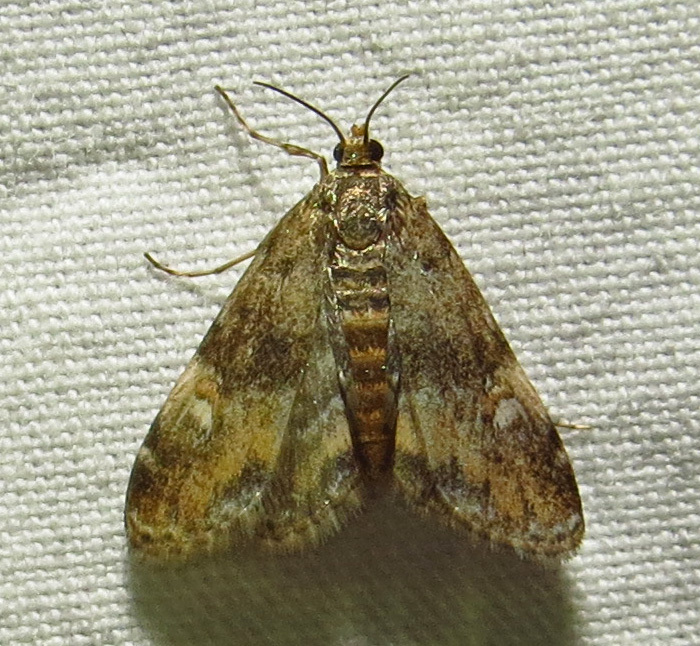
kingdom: Animalia
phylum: Arthropoda
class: Insecta
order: Lepidoptera
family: Crambidae
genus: Elophila
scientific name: Elophila obliteralis
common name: Waterlily leafcutter moth
